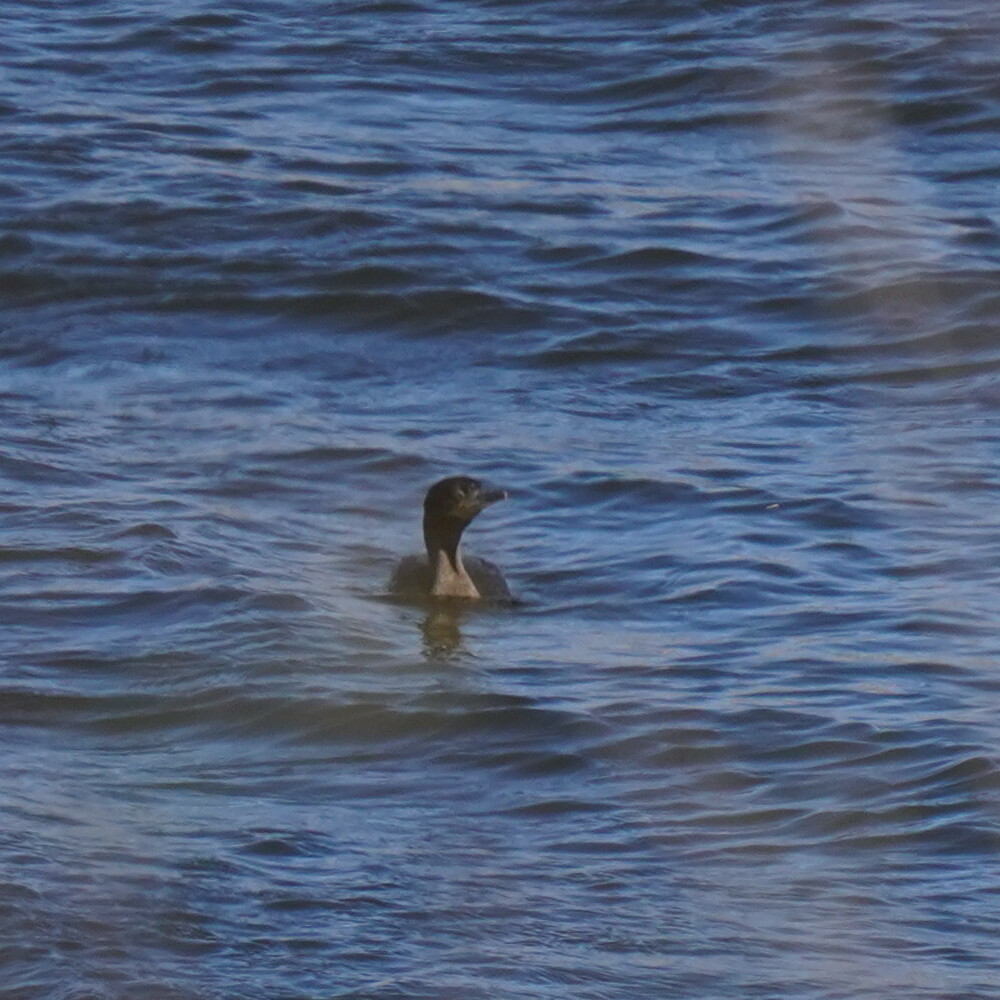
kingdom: Animalia
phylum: Chordata
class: Aves
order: Suliformes
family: Phalacrocoracidae
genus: Phalacrocorax
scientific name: Phalacrocorax brasilianus
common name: Neotropic cormorant
